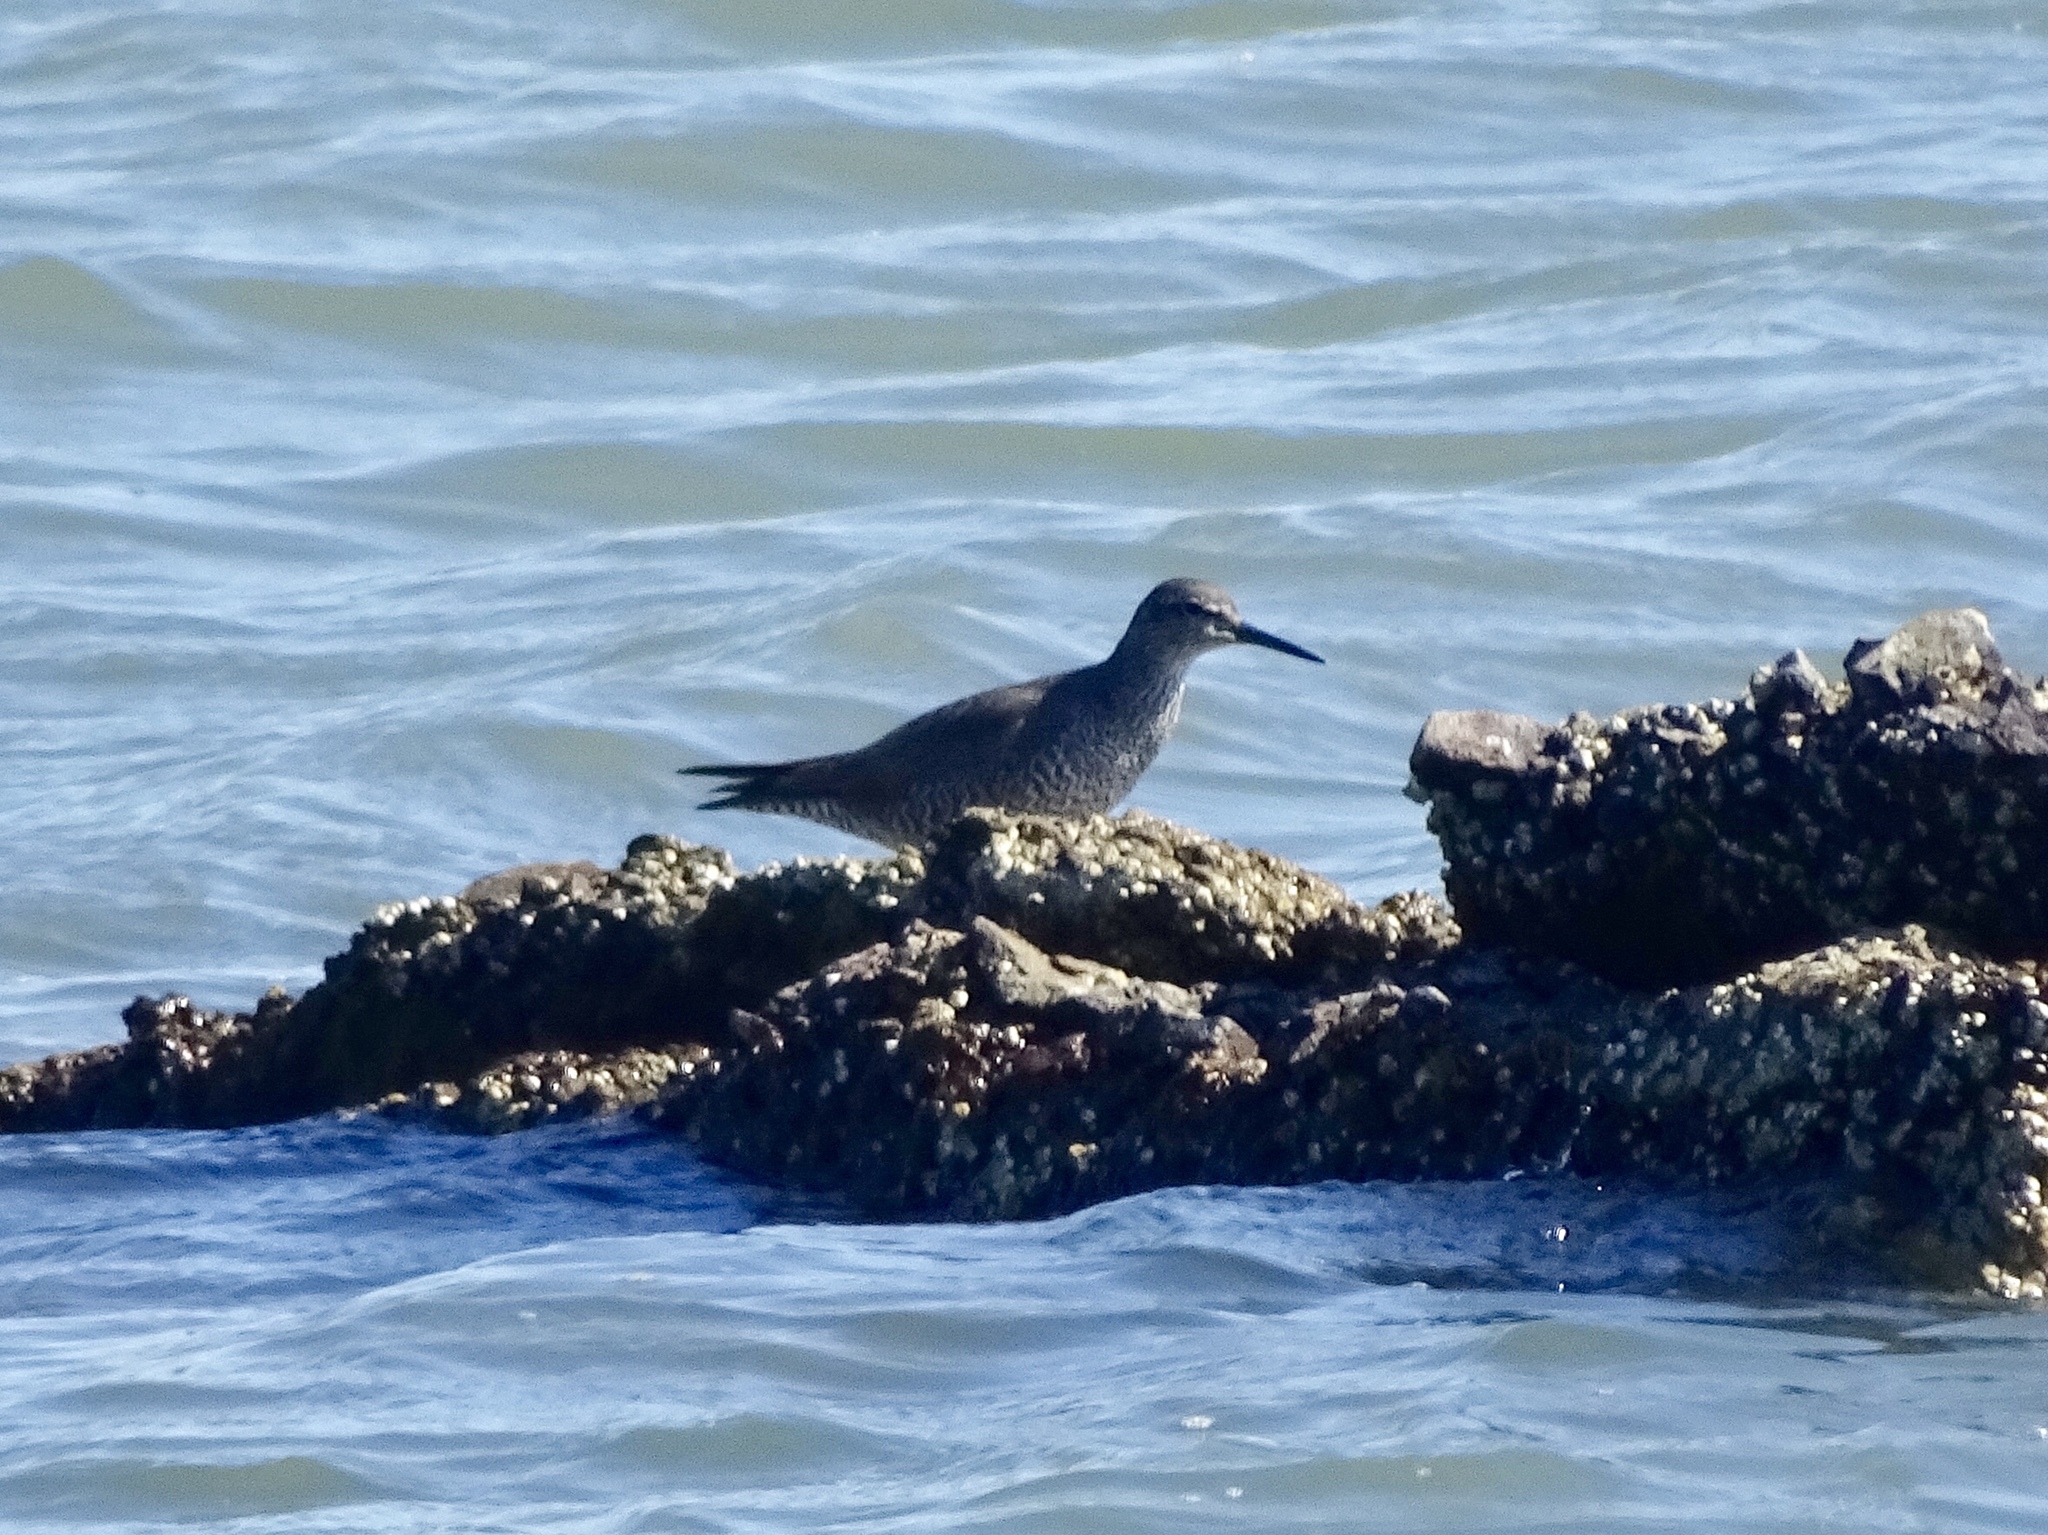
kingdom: Animalia
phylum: Chordata
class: Aves
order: Charadriiformes
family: Scolopacidae
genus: Tringa
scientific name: Tringa incana
